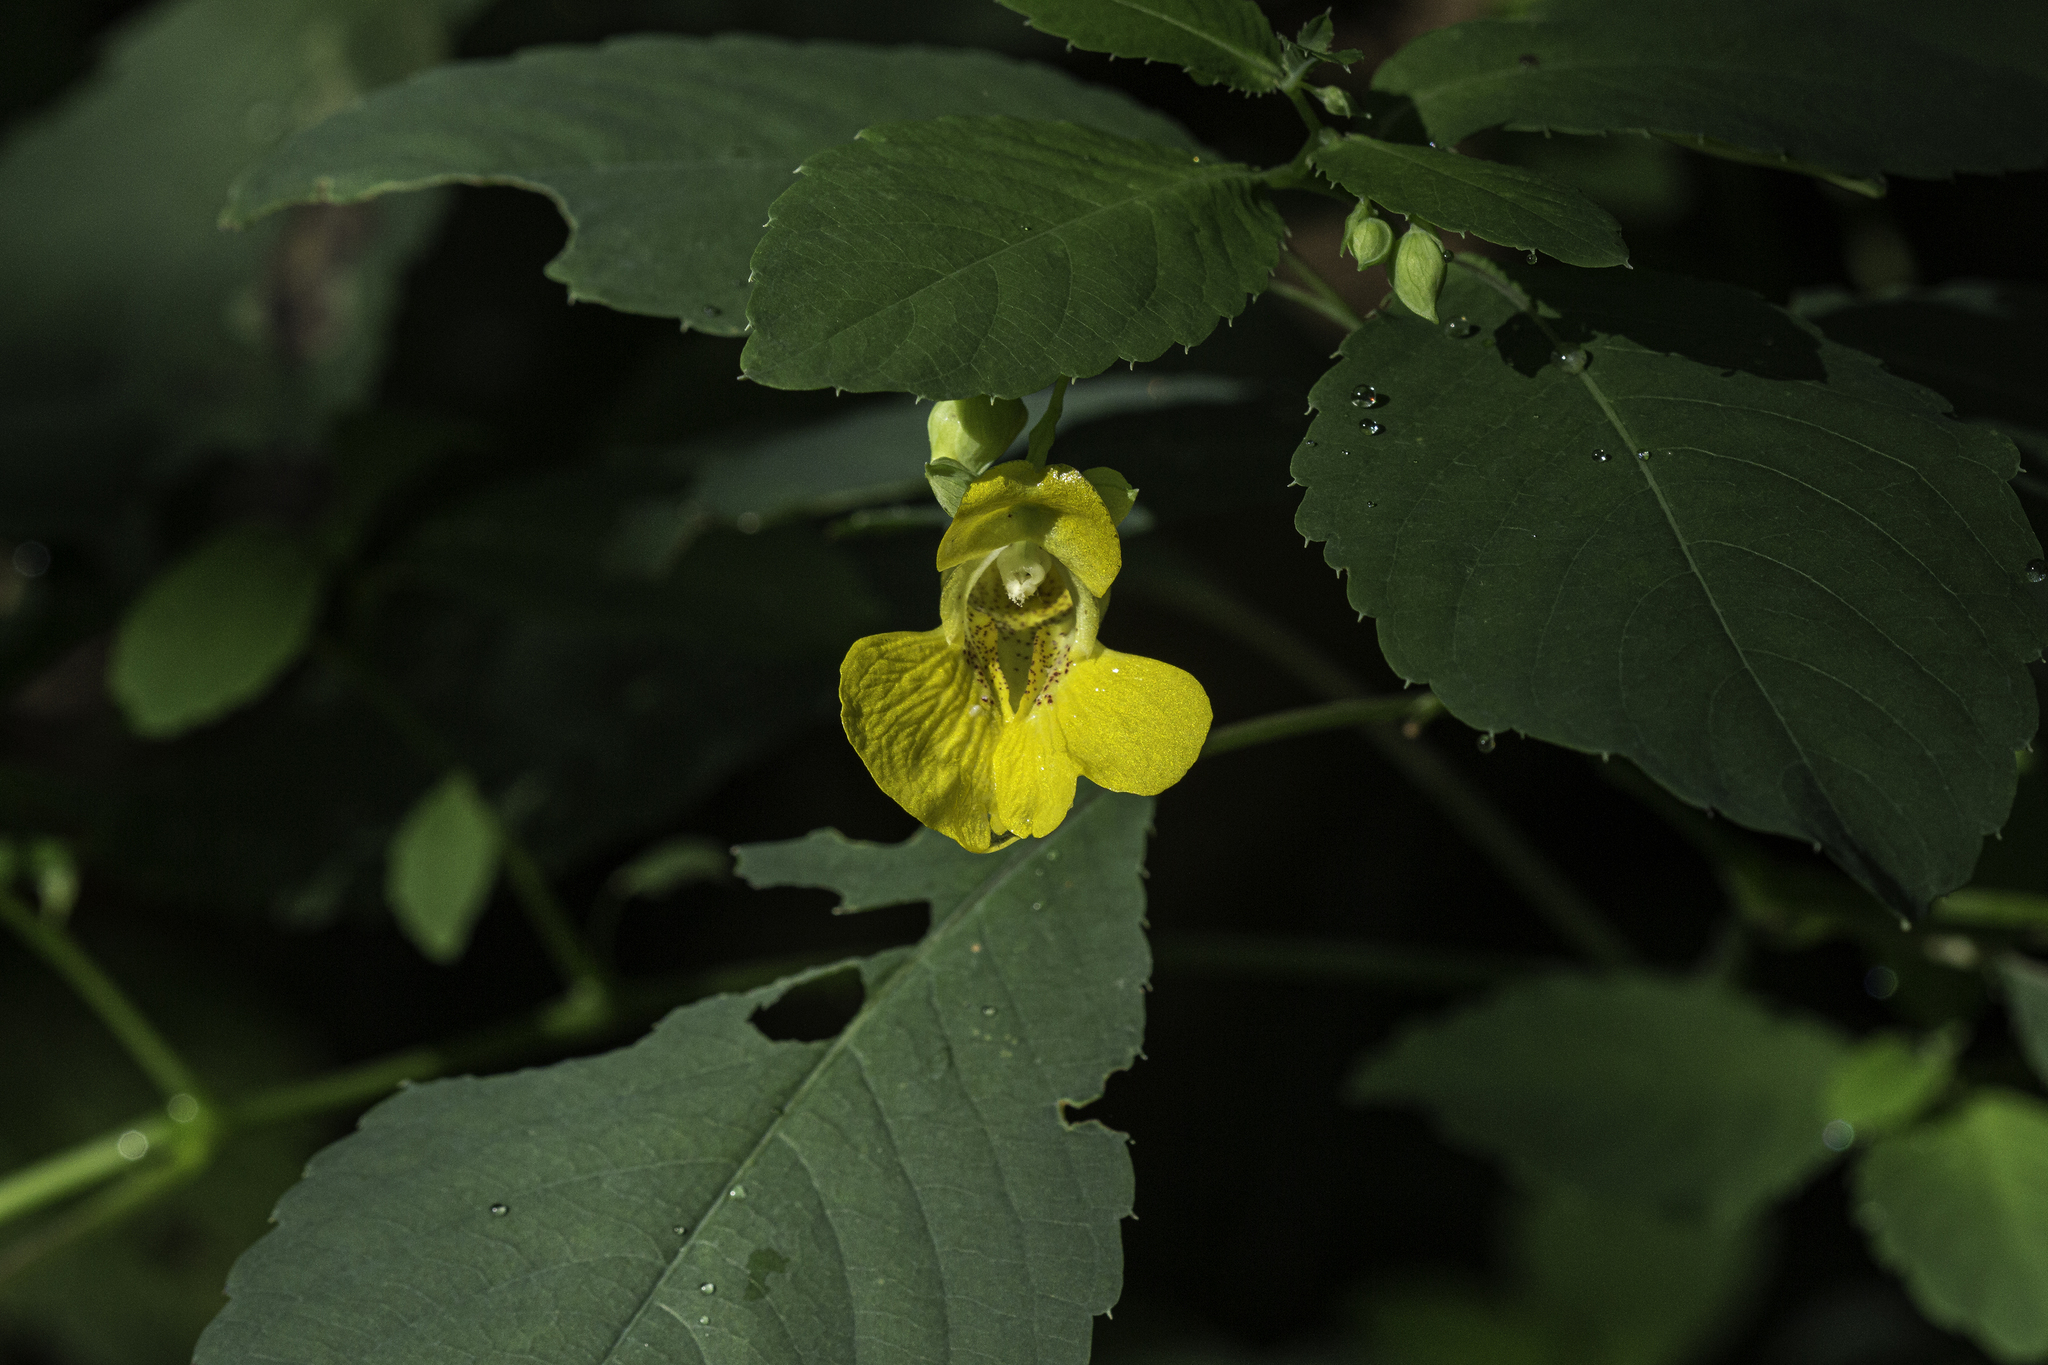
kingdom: Plantae
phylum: Tracheophyta
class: Magnoliopsida
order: Ericales
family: Balsaminaceae
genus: Impatiens
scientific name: Impatiens pallida
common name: Pale snapweed
